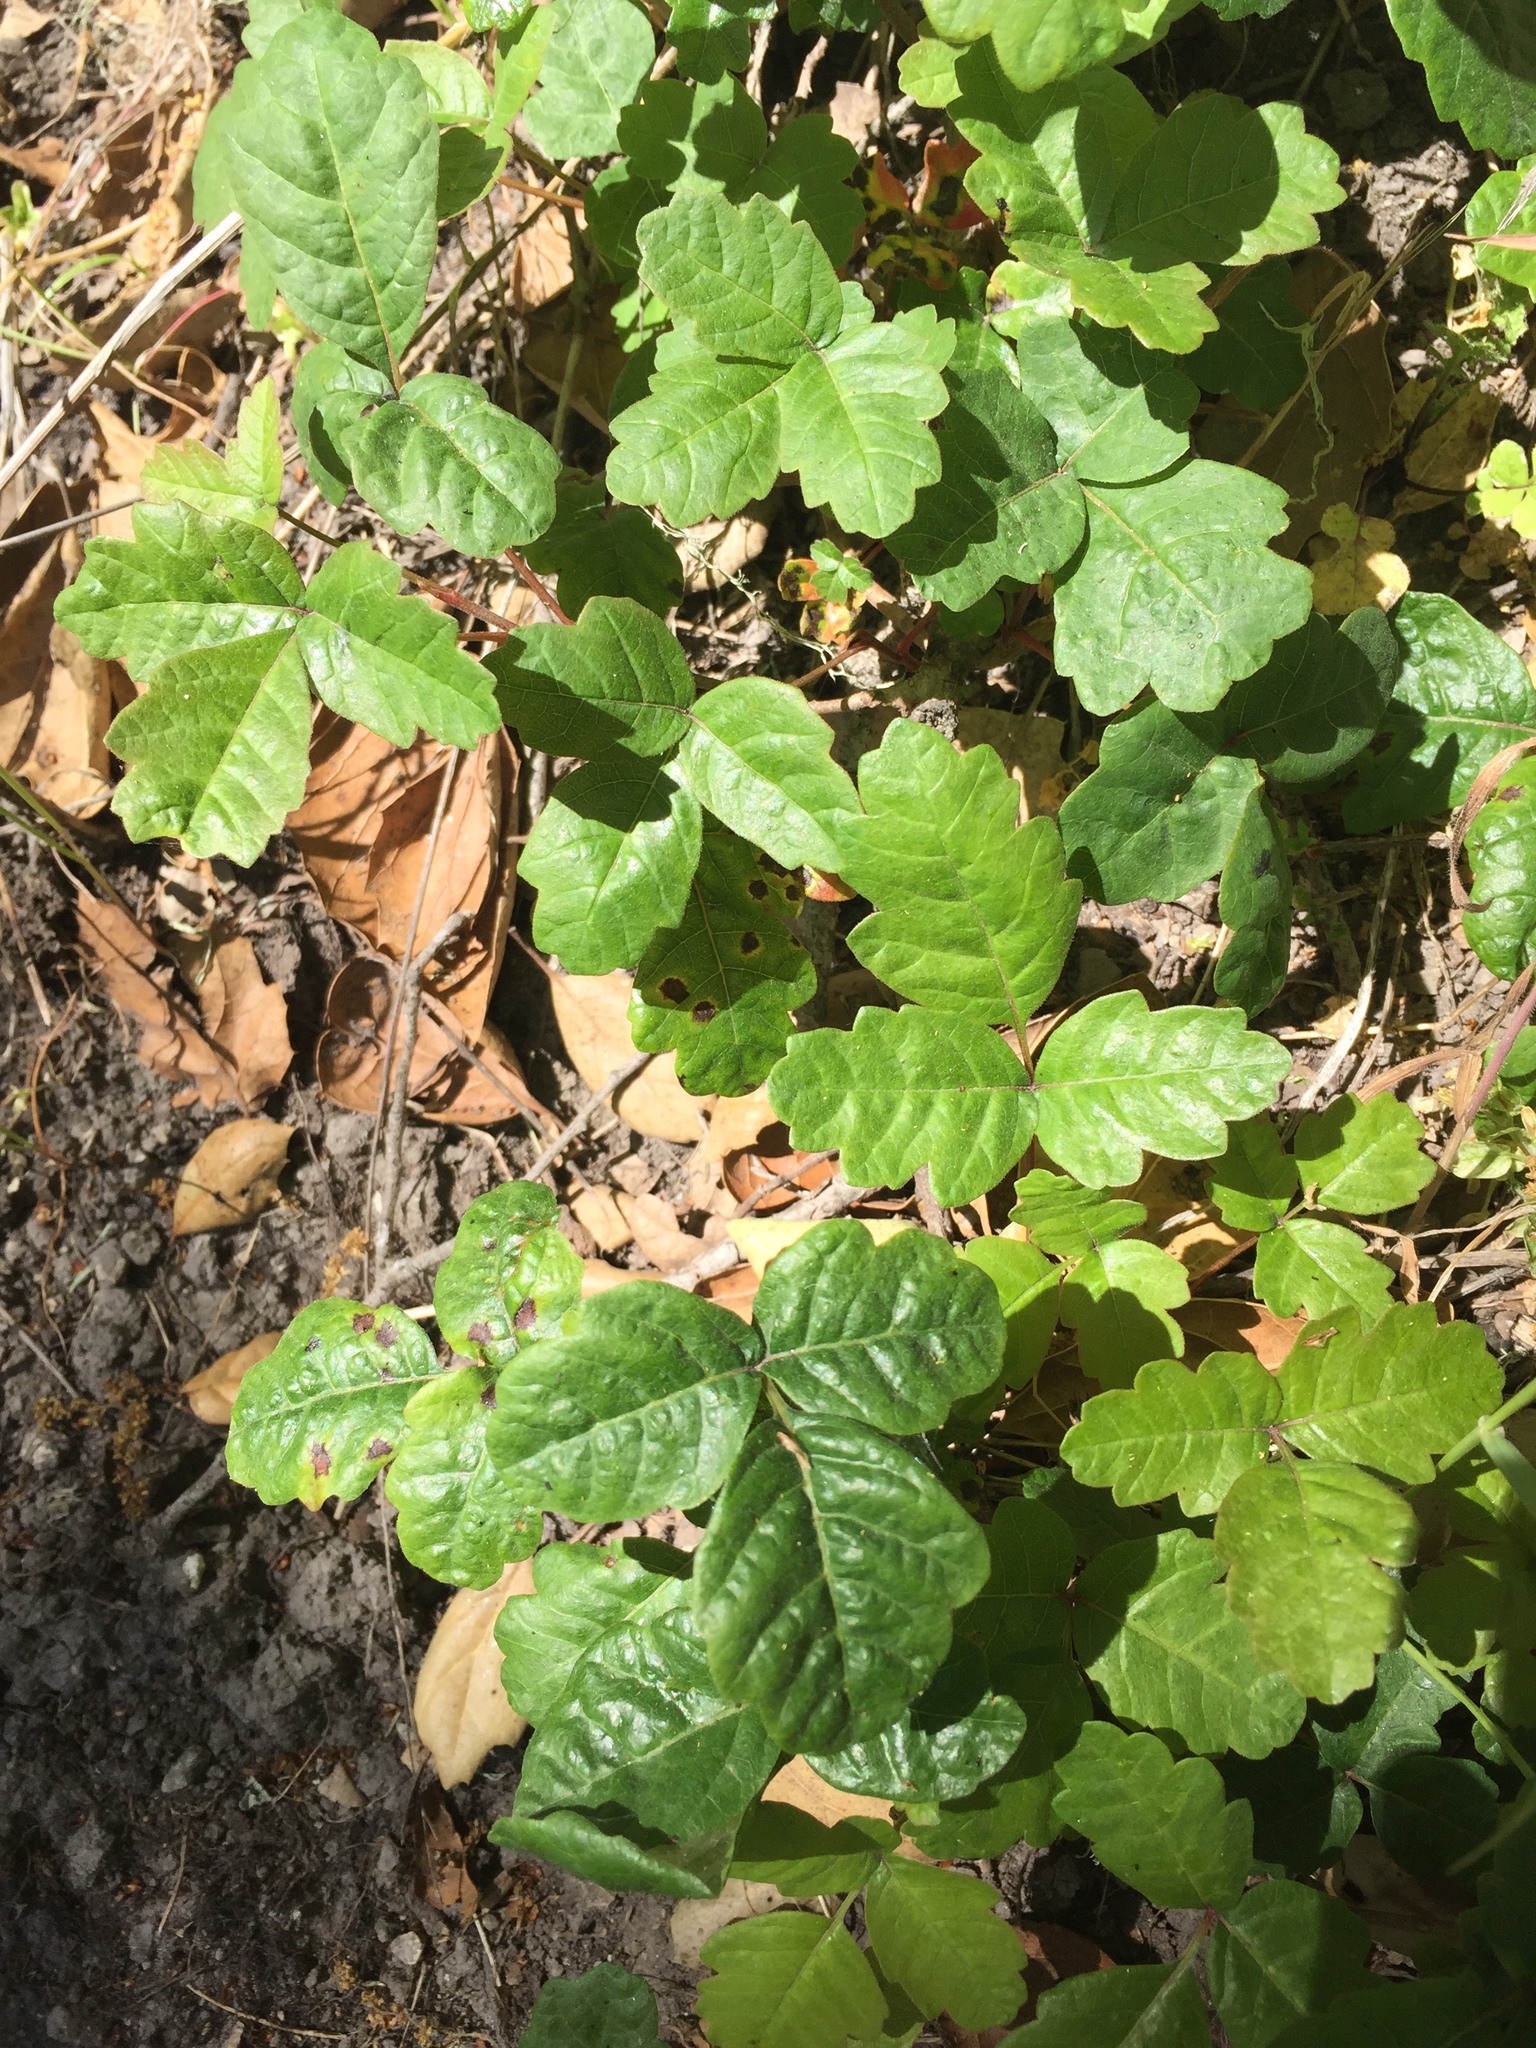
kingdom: Plantae
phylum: Tracheophyta
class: Magnoliopsida
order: Sapindales
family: Anacardiaceae
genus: Toxicodendron
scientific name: Toxicodendron diversilobum
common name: Pacific poison-oak
